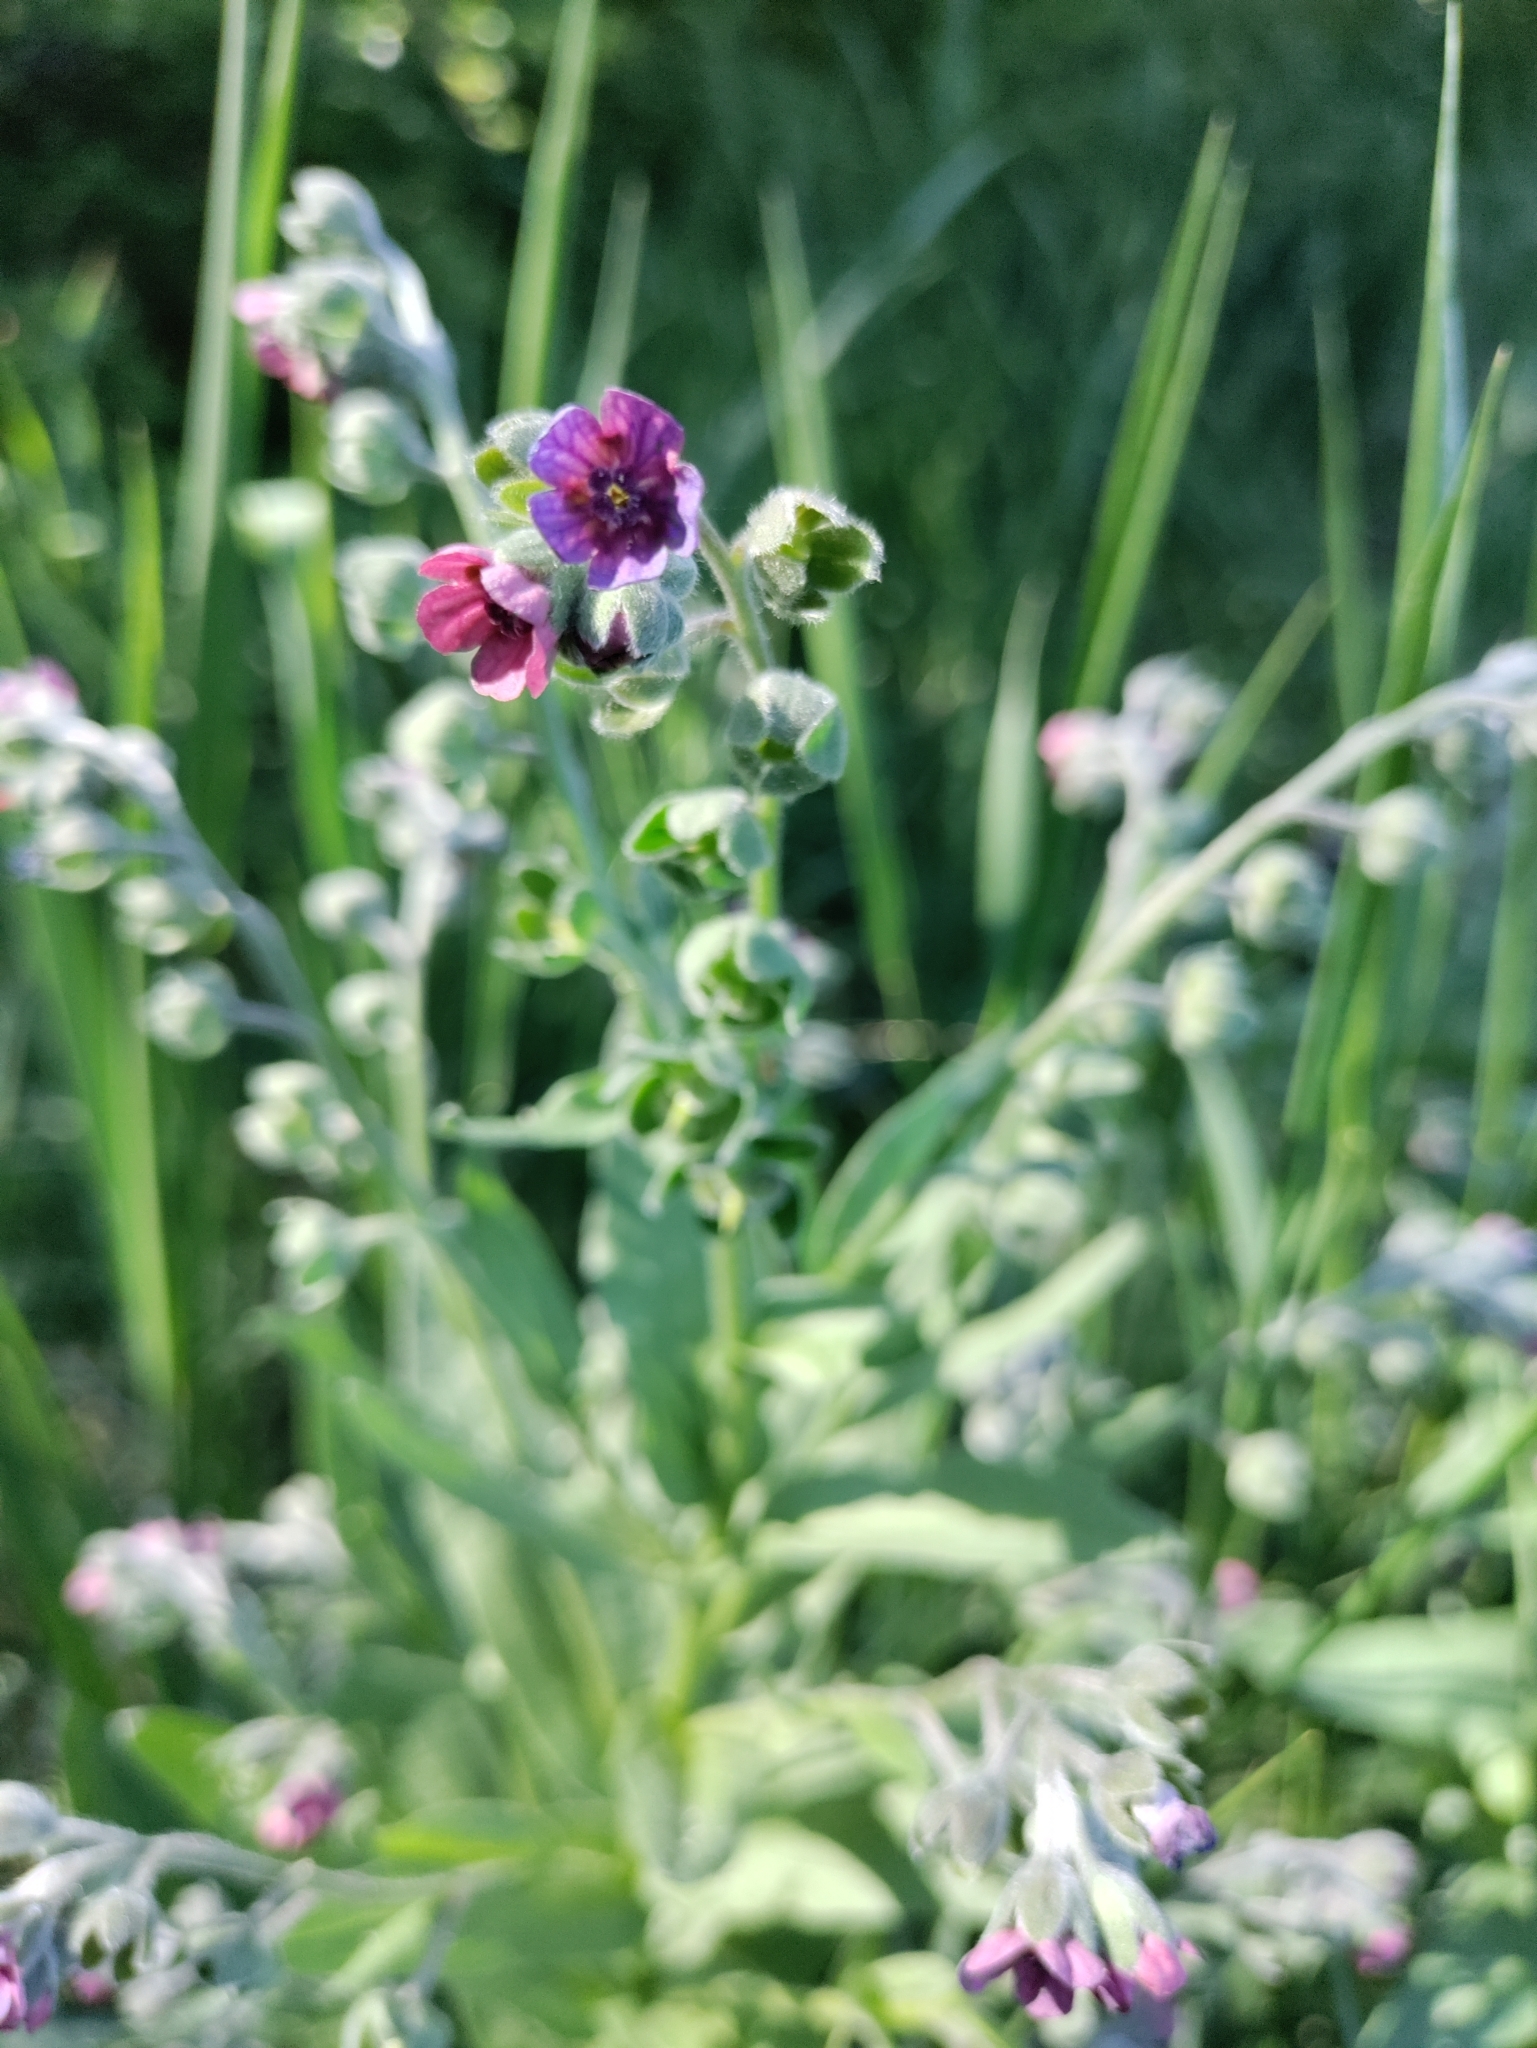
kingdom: Plantae
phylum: Tracheophyta
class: Magnoliopsida
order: Boraginales
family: Boraginaceae
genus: Cynoglossum
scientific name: Cynoglossum officinale
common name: Hound's-tongue
